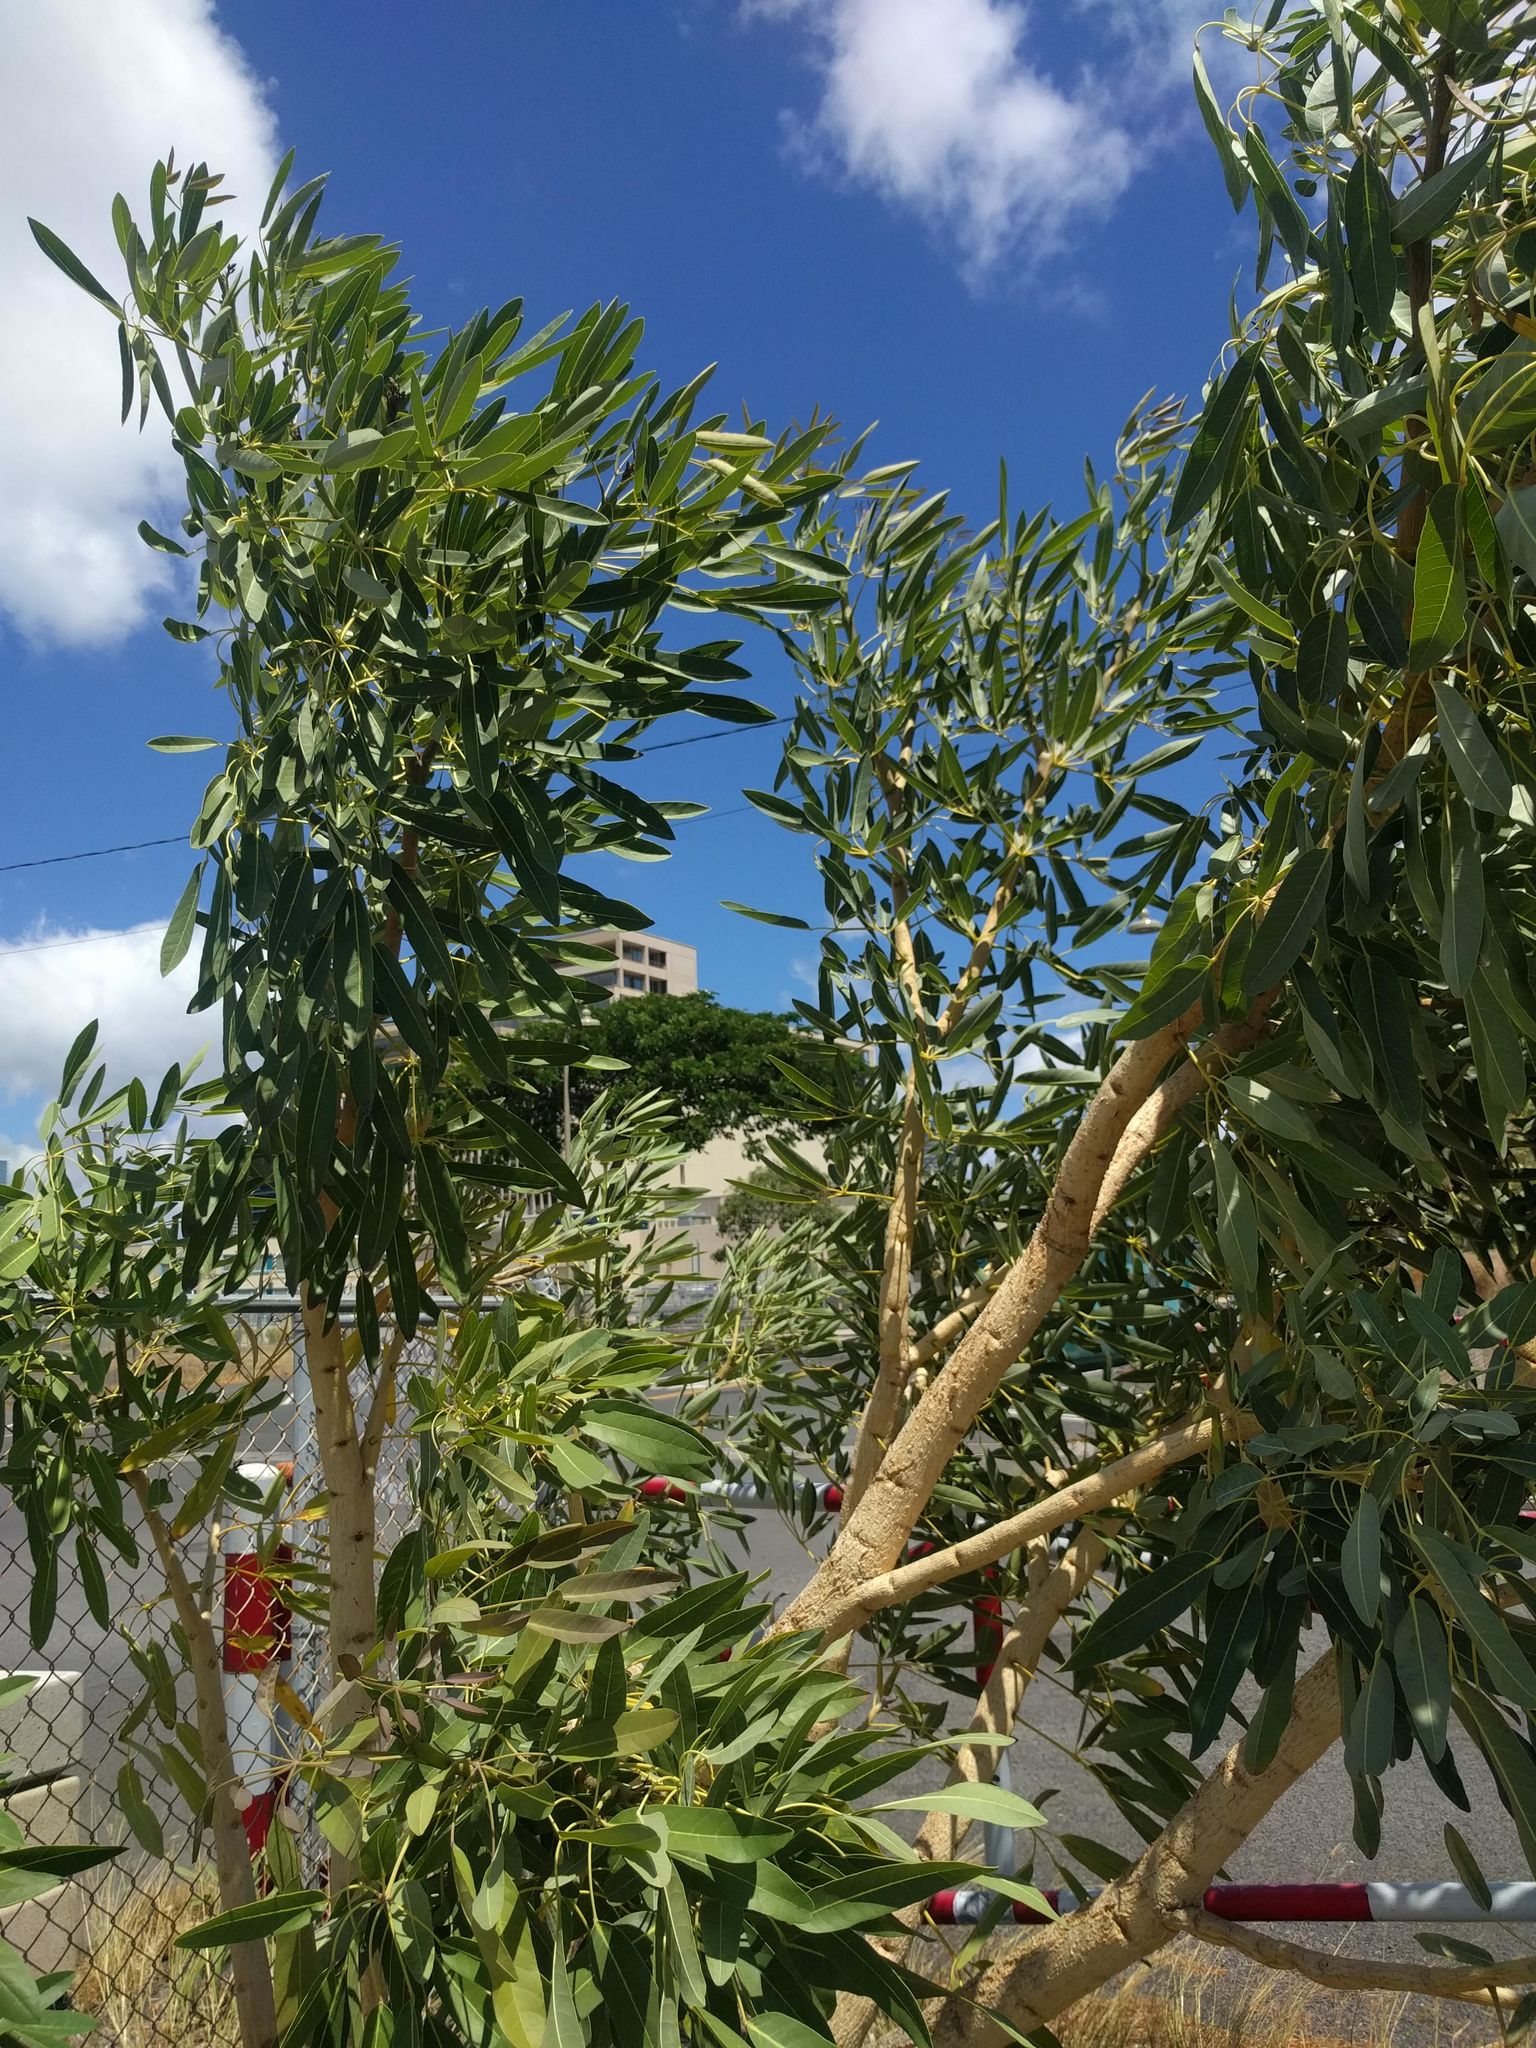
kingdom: Plantae
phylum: Tracheophyta
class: Magnoliopsida
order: Lamiales
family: Bignoniaceae
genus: Tabebuia
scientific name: Tabebuia aurea
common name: Caribbean trumpet-tree
